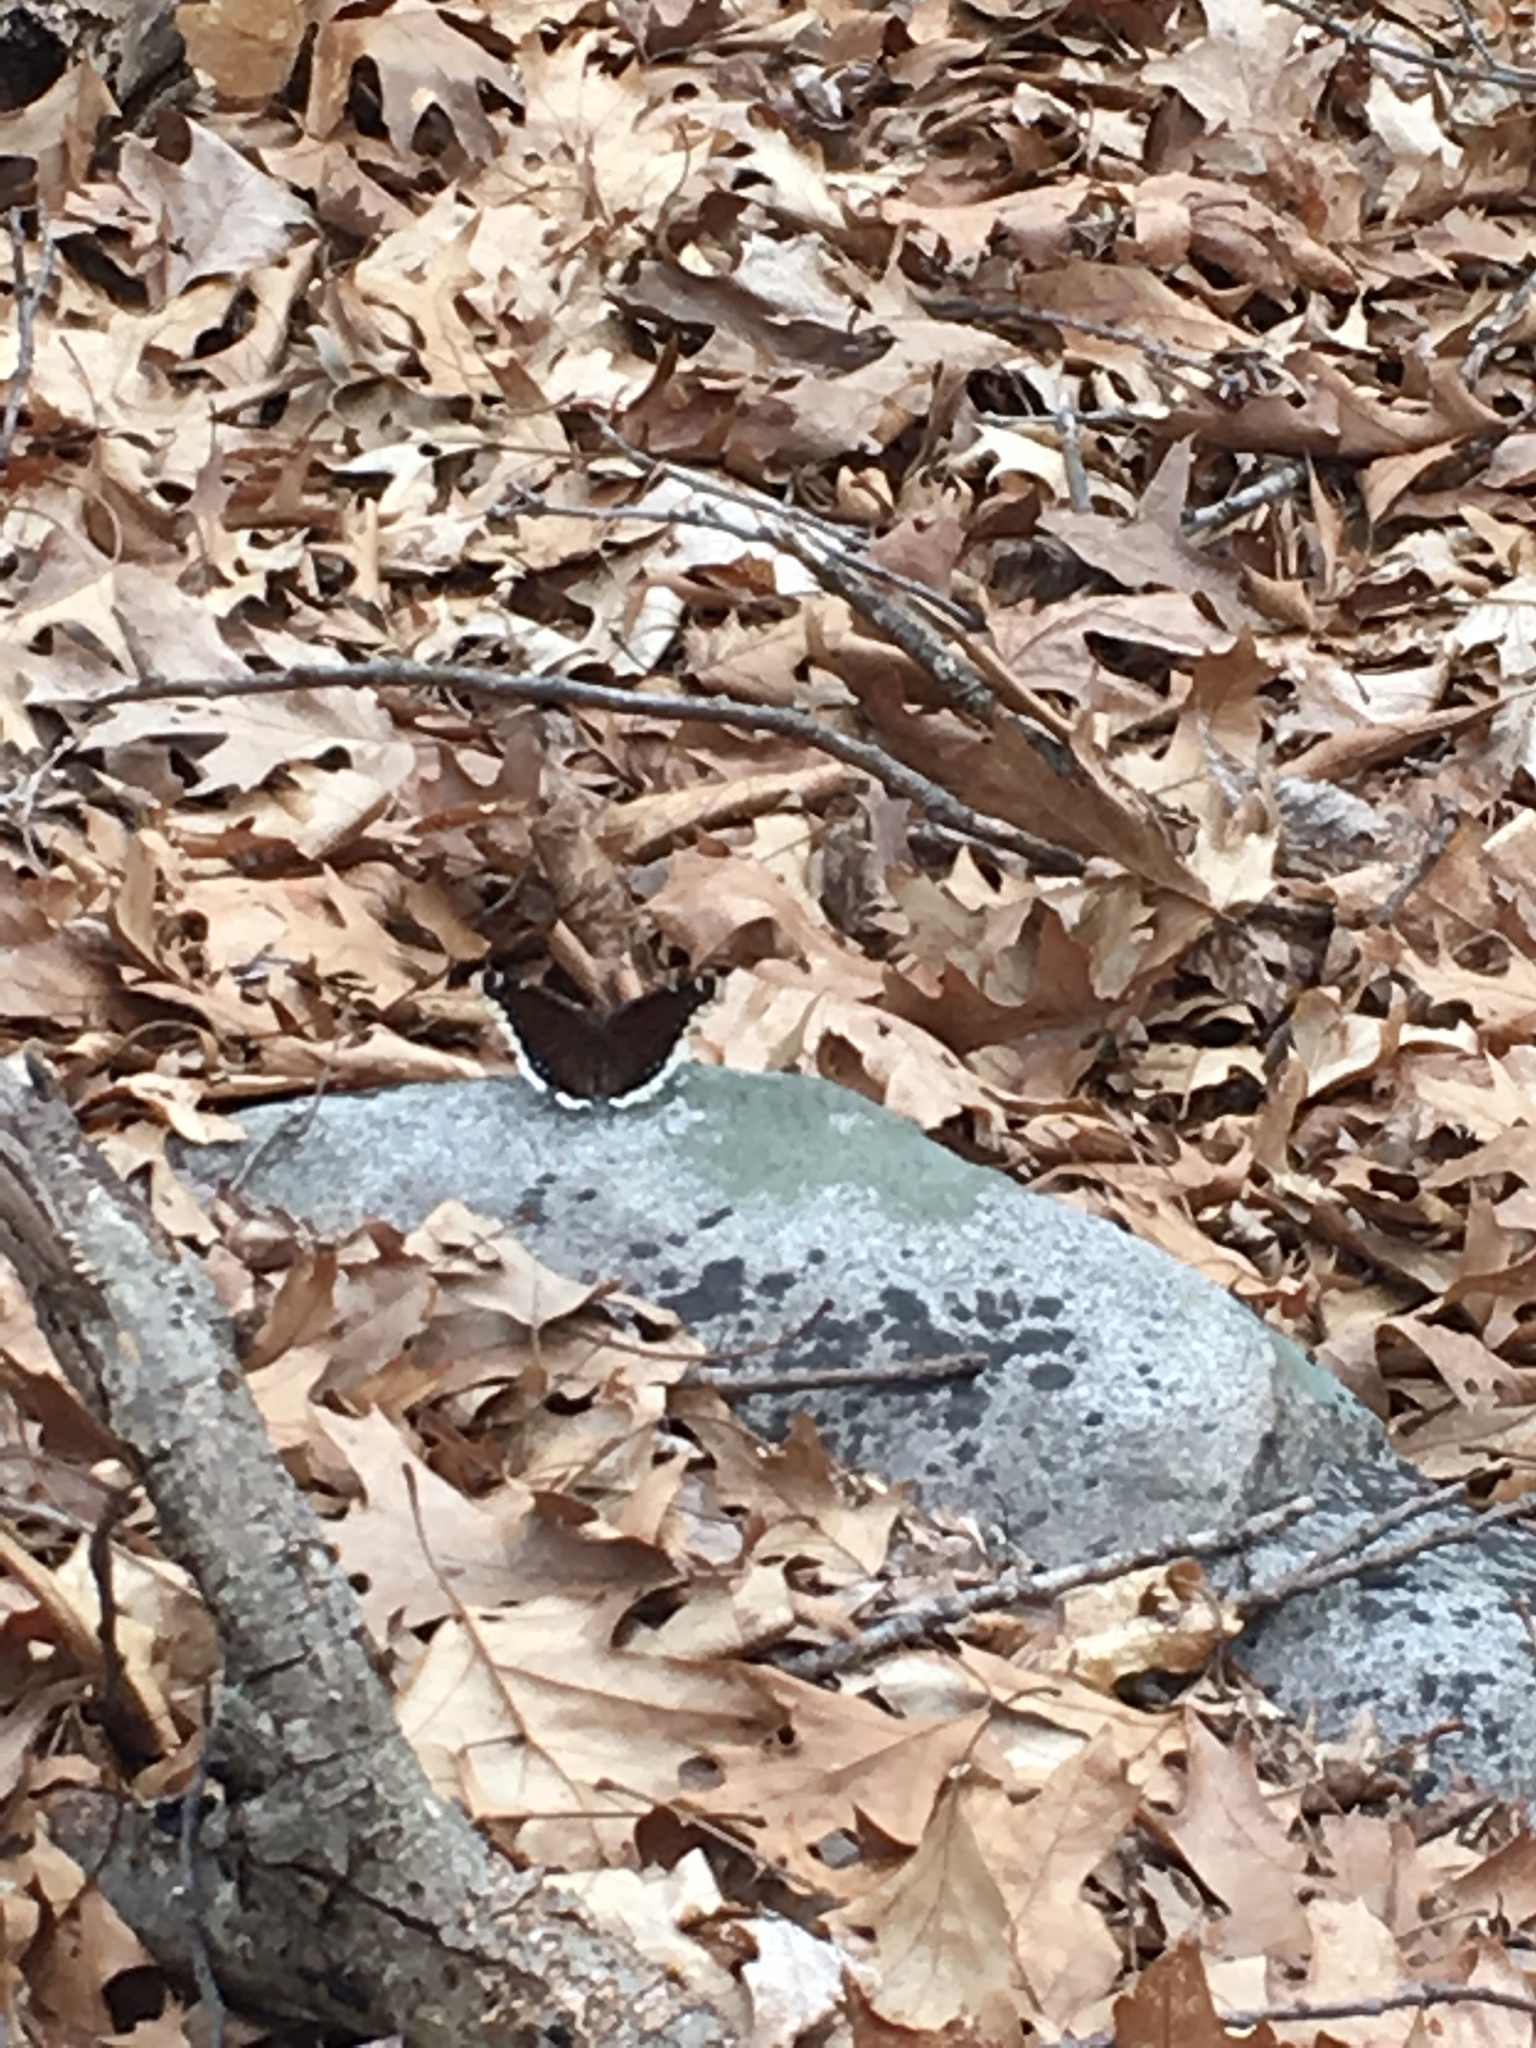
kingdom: Animalia
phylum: Arthropoda
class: Insecta
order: Lepidoptera
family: Nymphalidae
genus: Nymphalis
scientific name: Nymphalis antiopa
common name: Camberwell beauty
